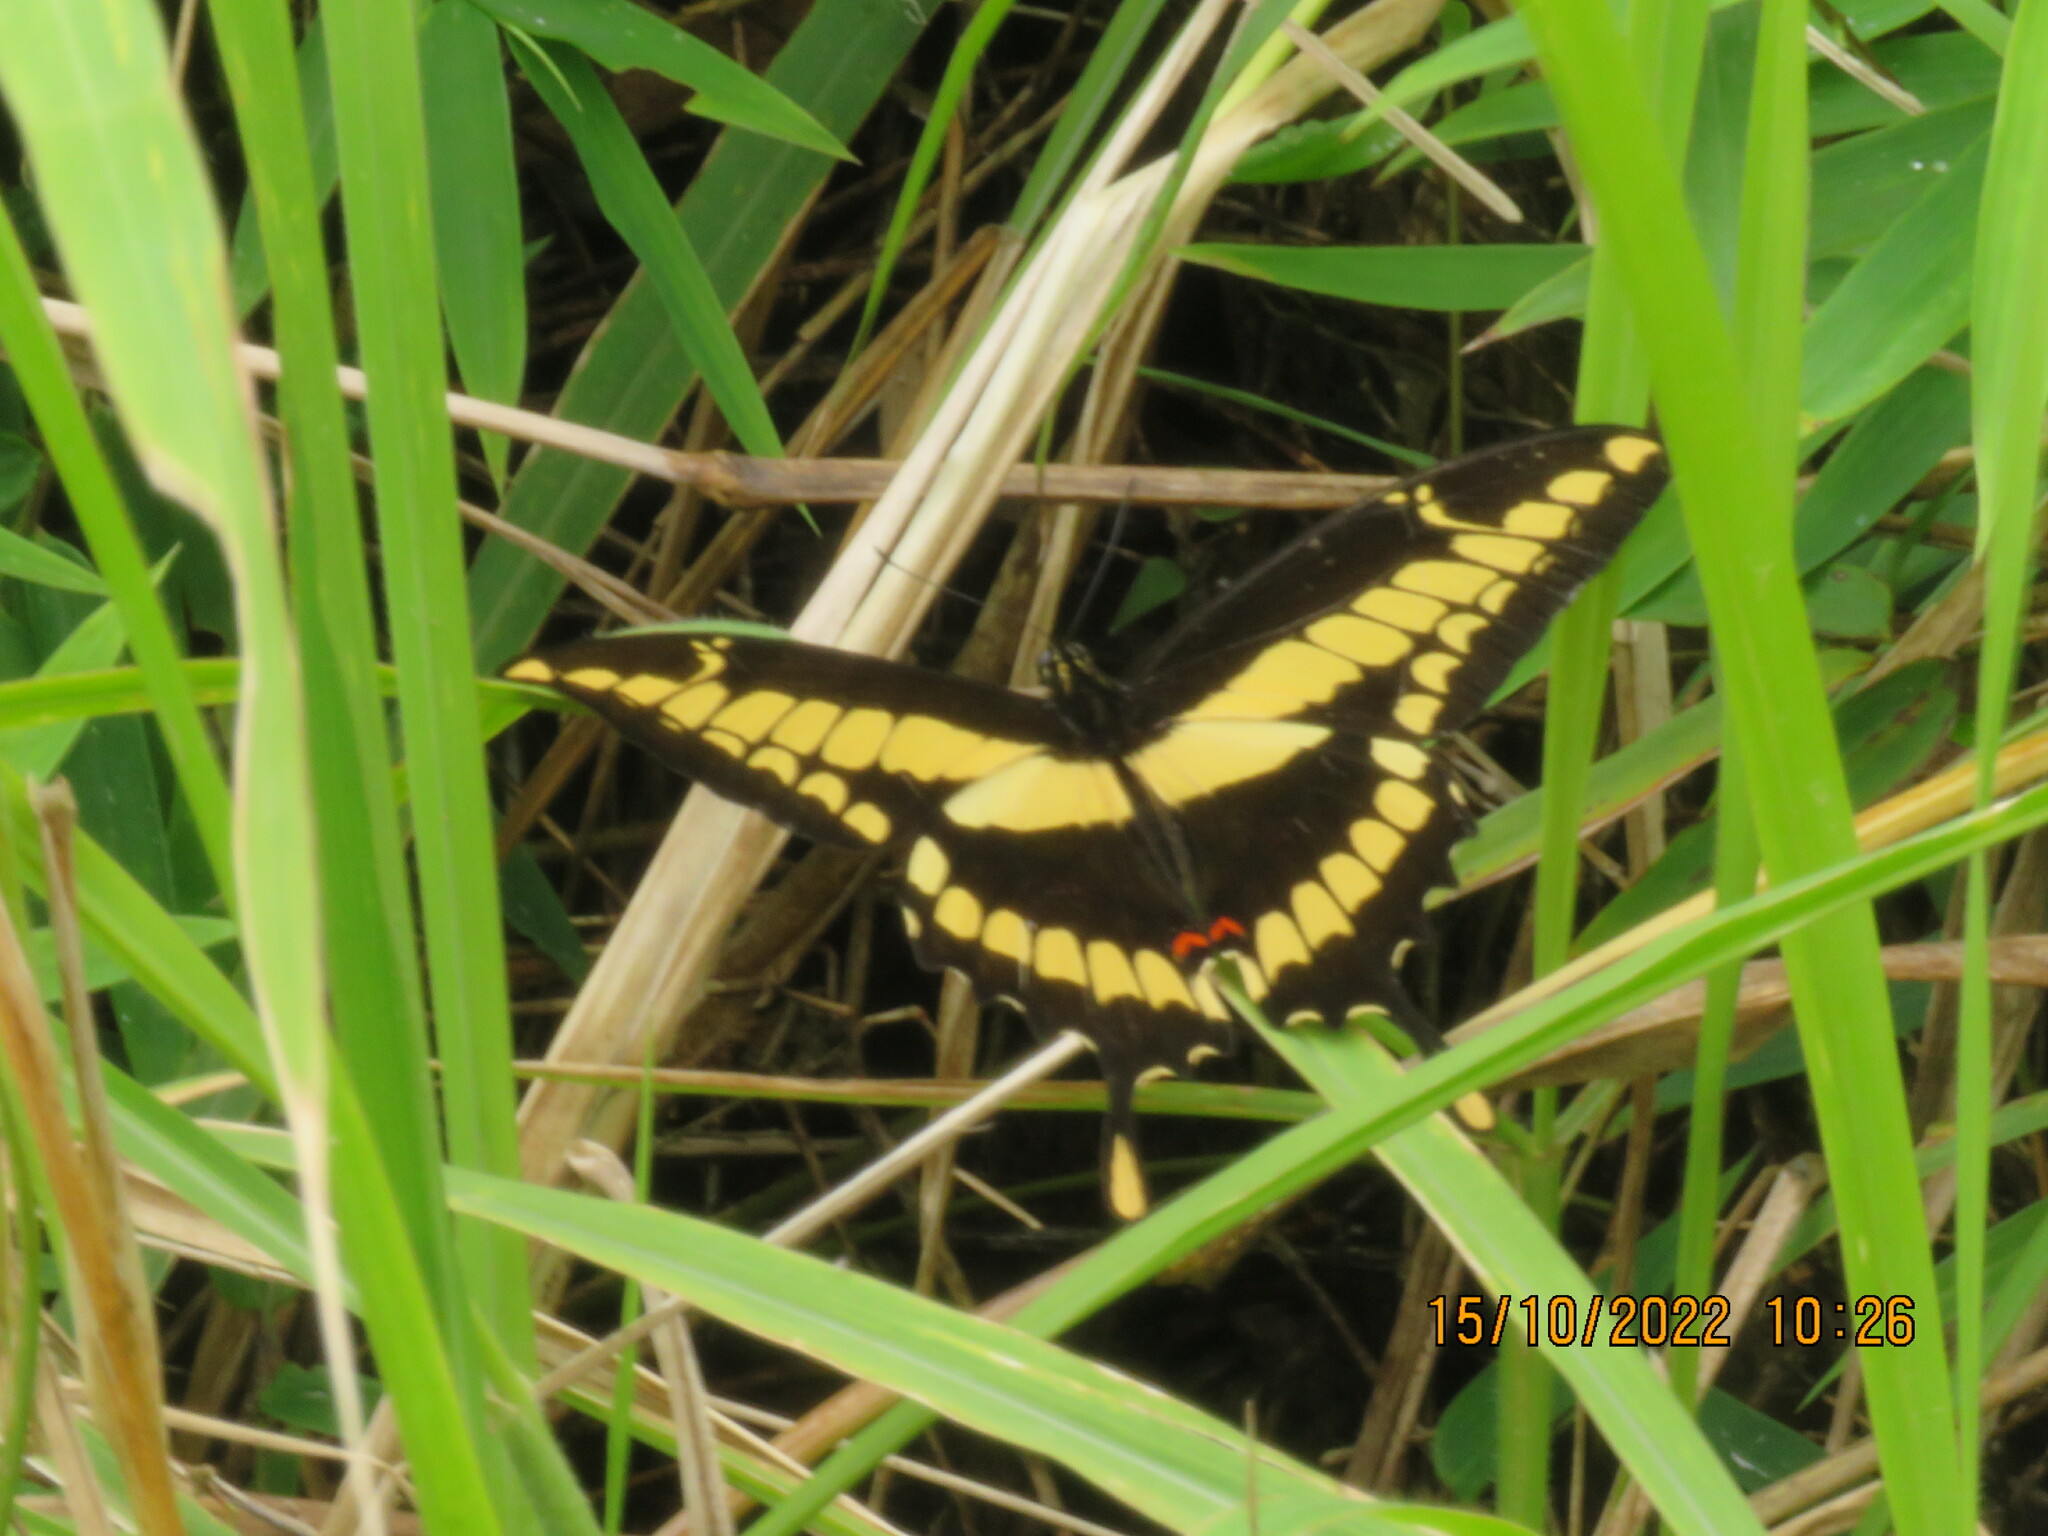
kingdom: Animalia
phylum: Arthropoda
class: Insecta
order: Lepidoptera
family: Papilionidae
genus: Papilio
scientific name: Papilio thoas
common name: King swallowtail
